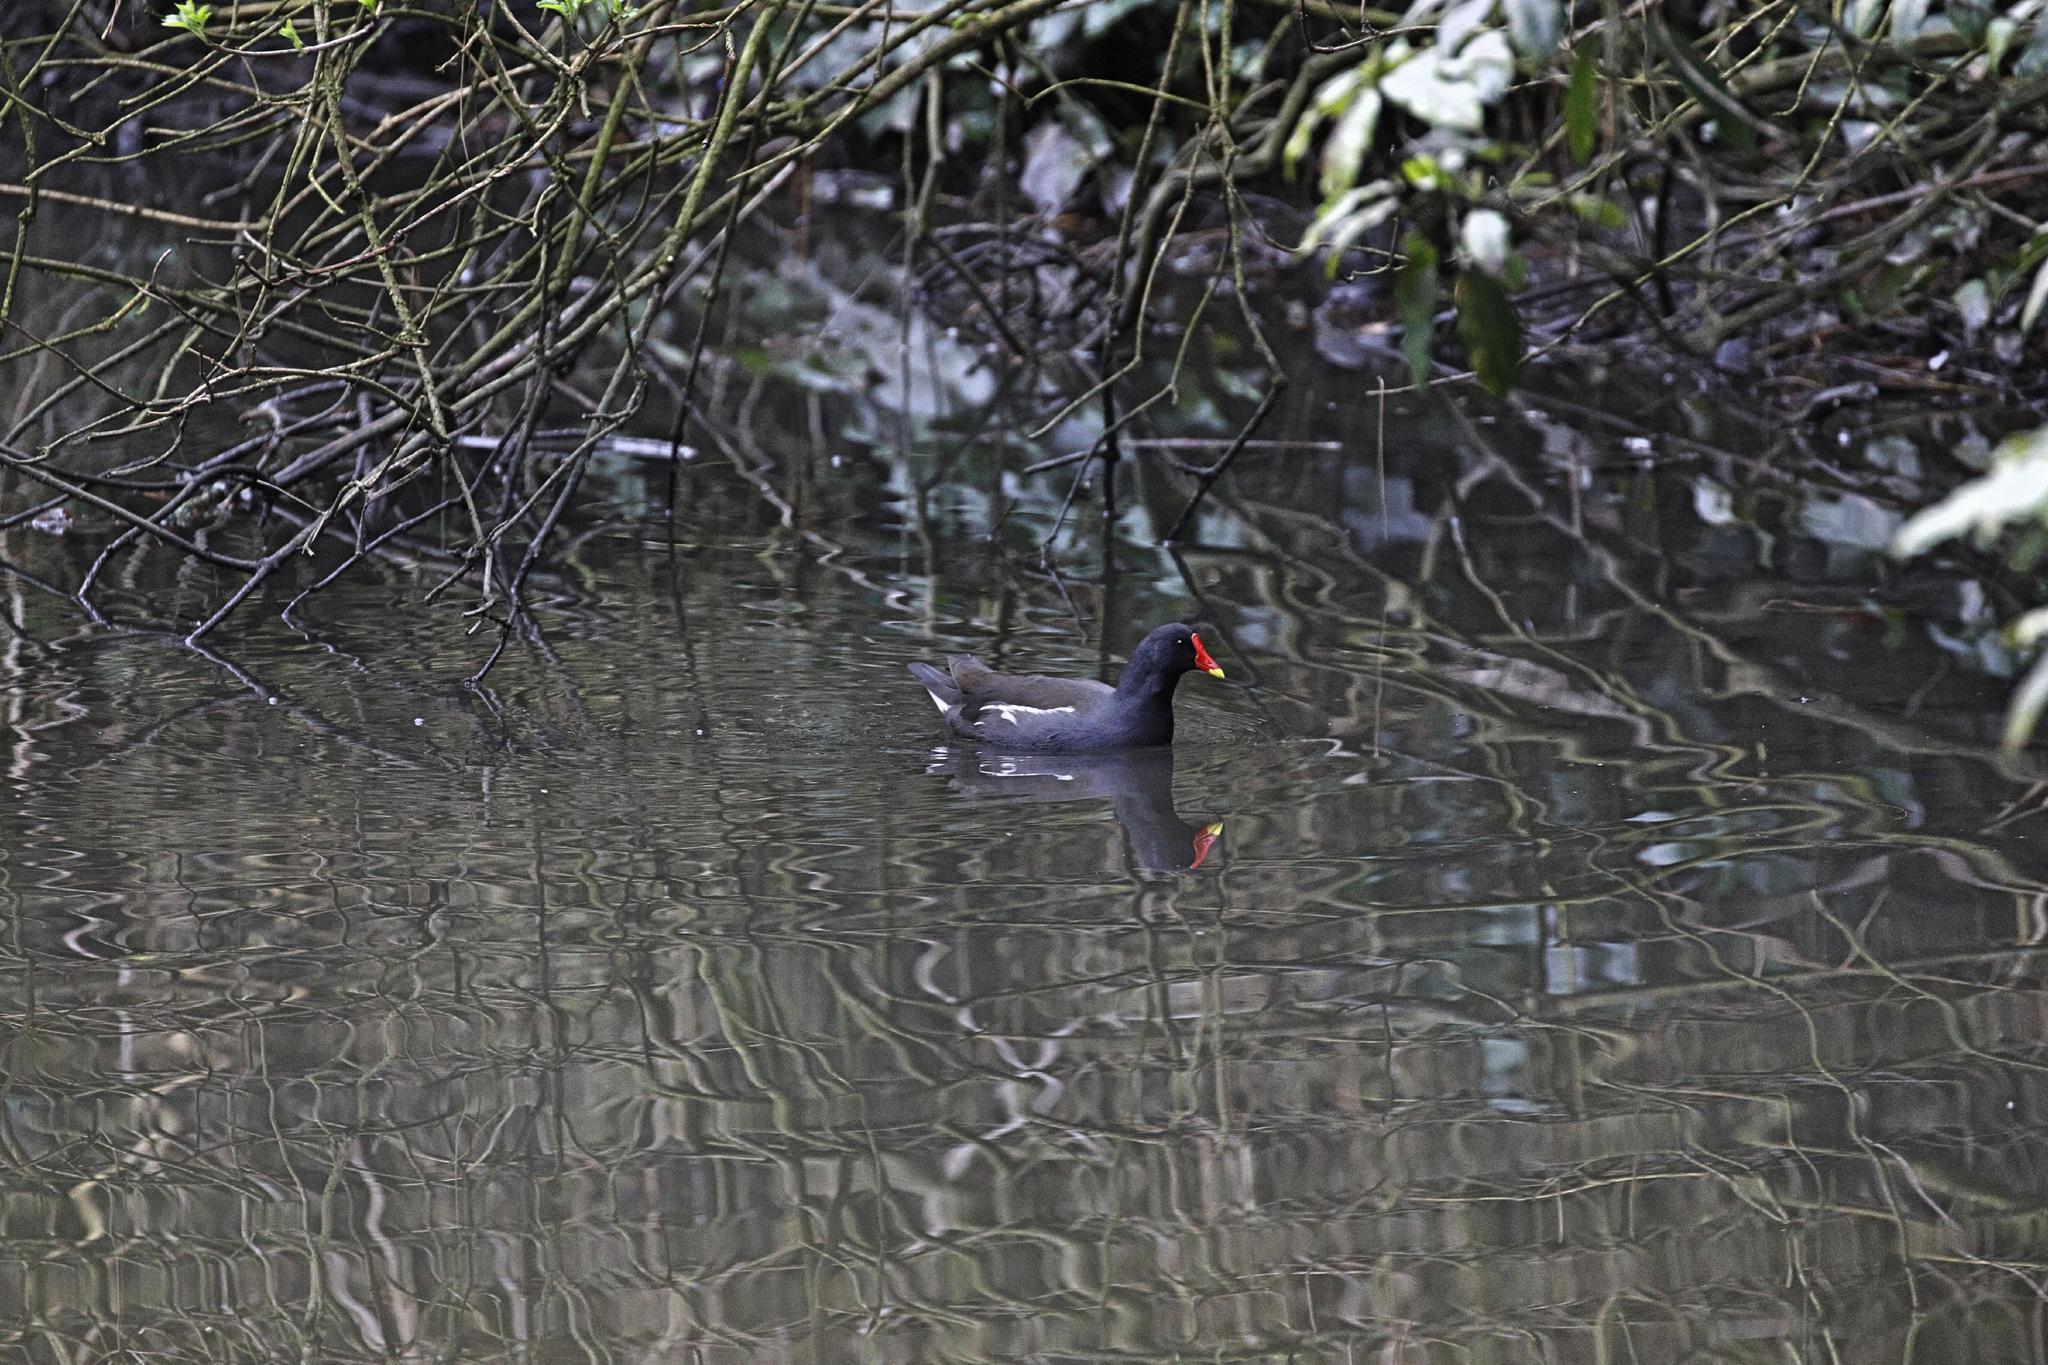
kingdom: Animalia
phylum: Chordata
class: Aves
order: Gruiformes
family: Rallidae
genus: Gallinula
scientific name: Gallinula chloropus
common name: Common moorhen
